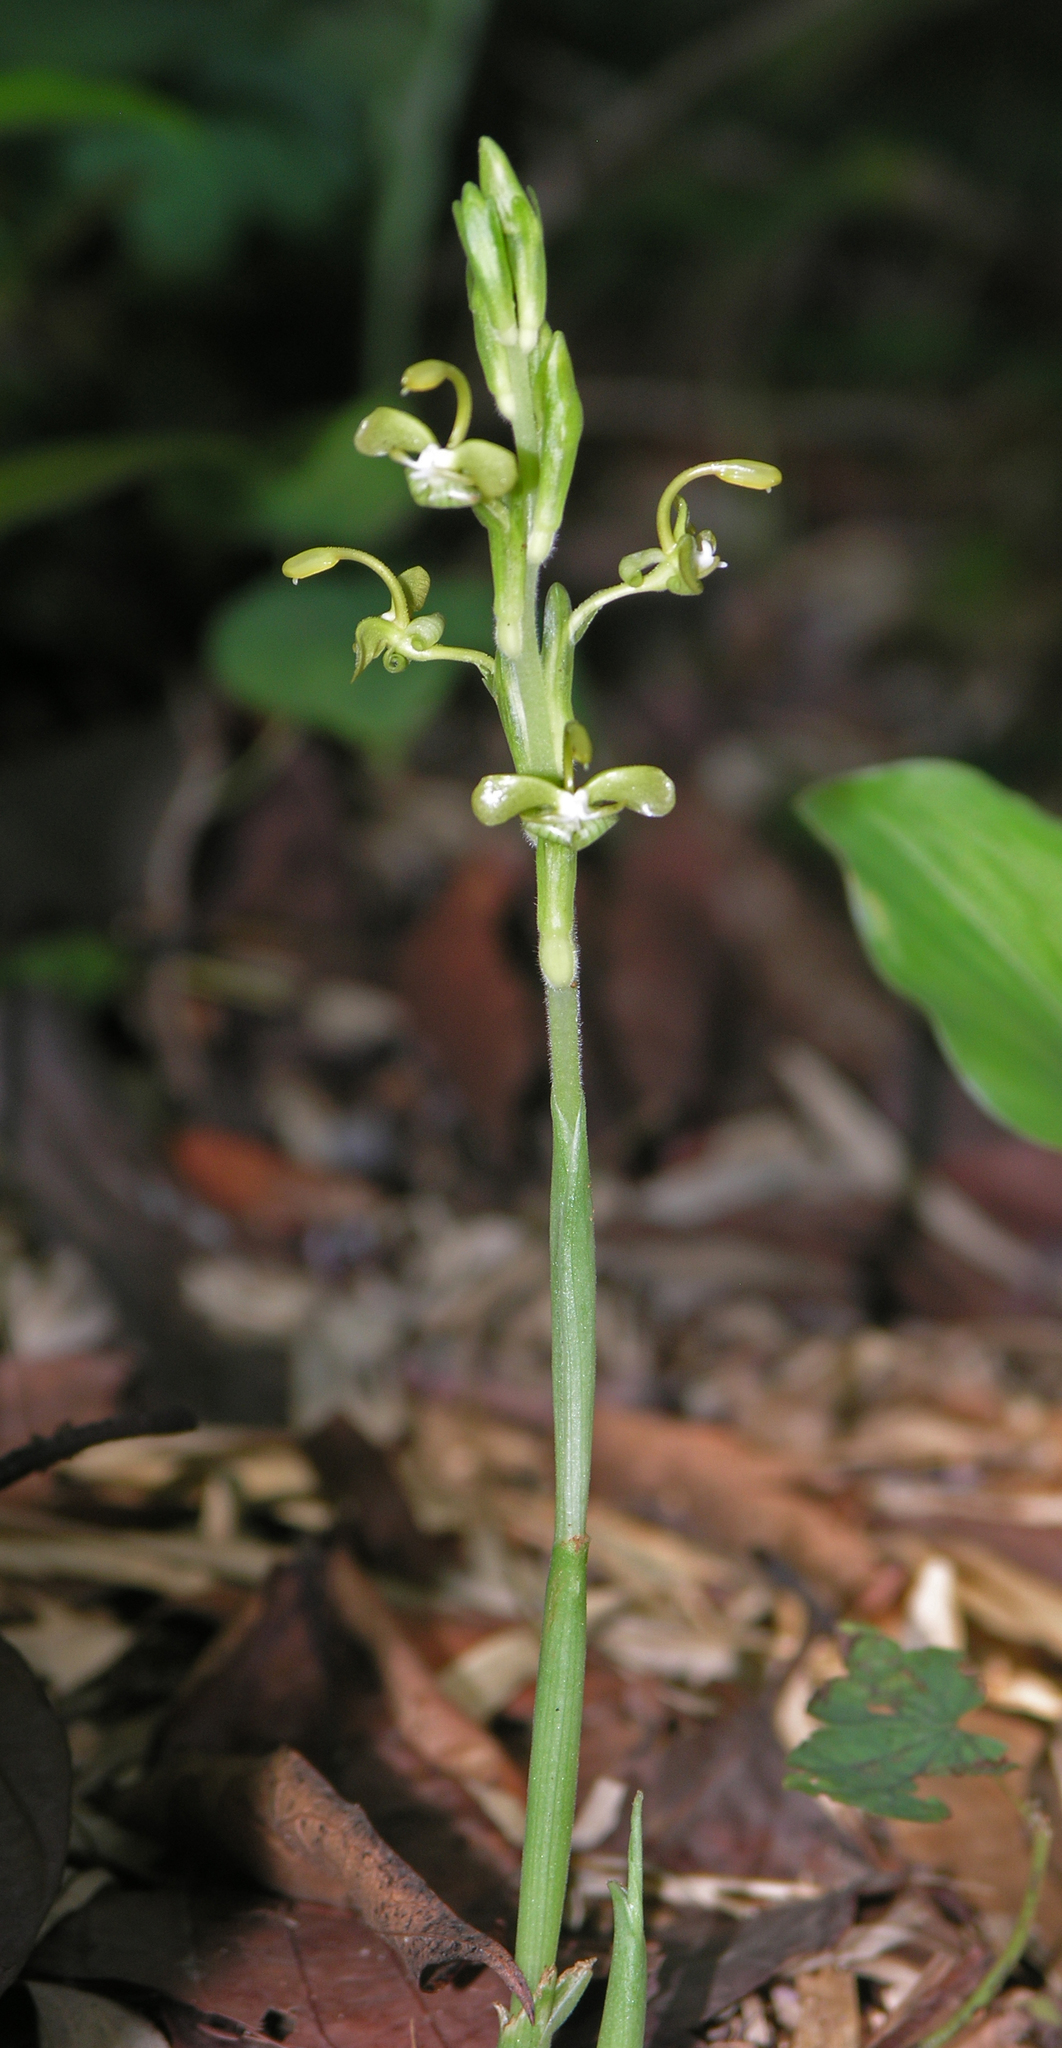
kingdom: Plantae
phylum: Tracheophyta
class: Liliopsida
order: Zingiberales
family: Zingiberaceae
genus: Gagnepainia
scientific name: Gagnepainia harmandii
